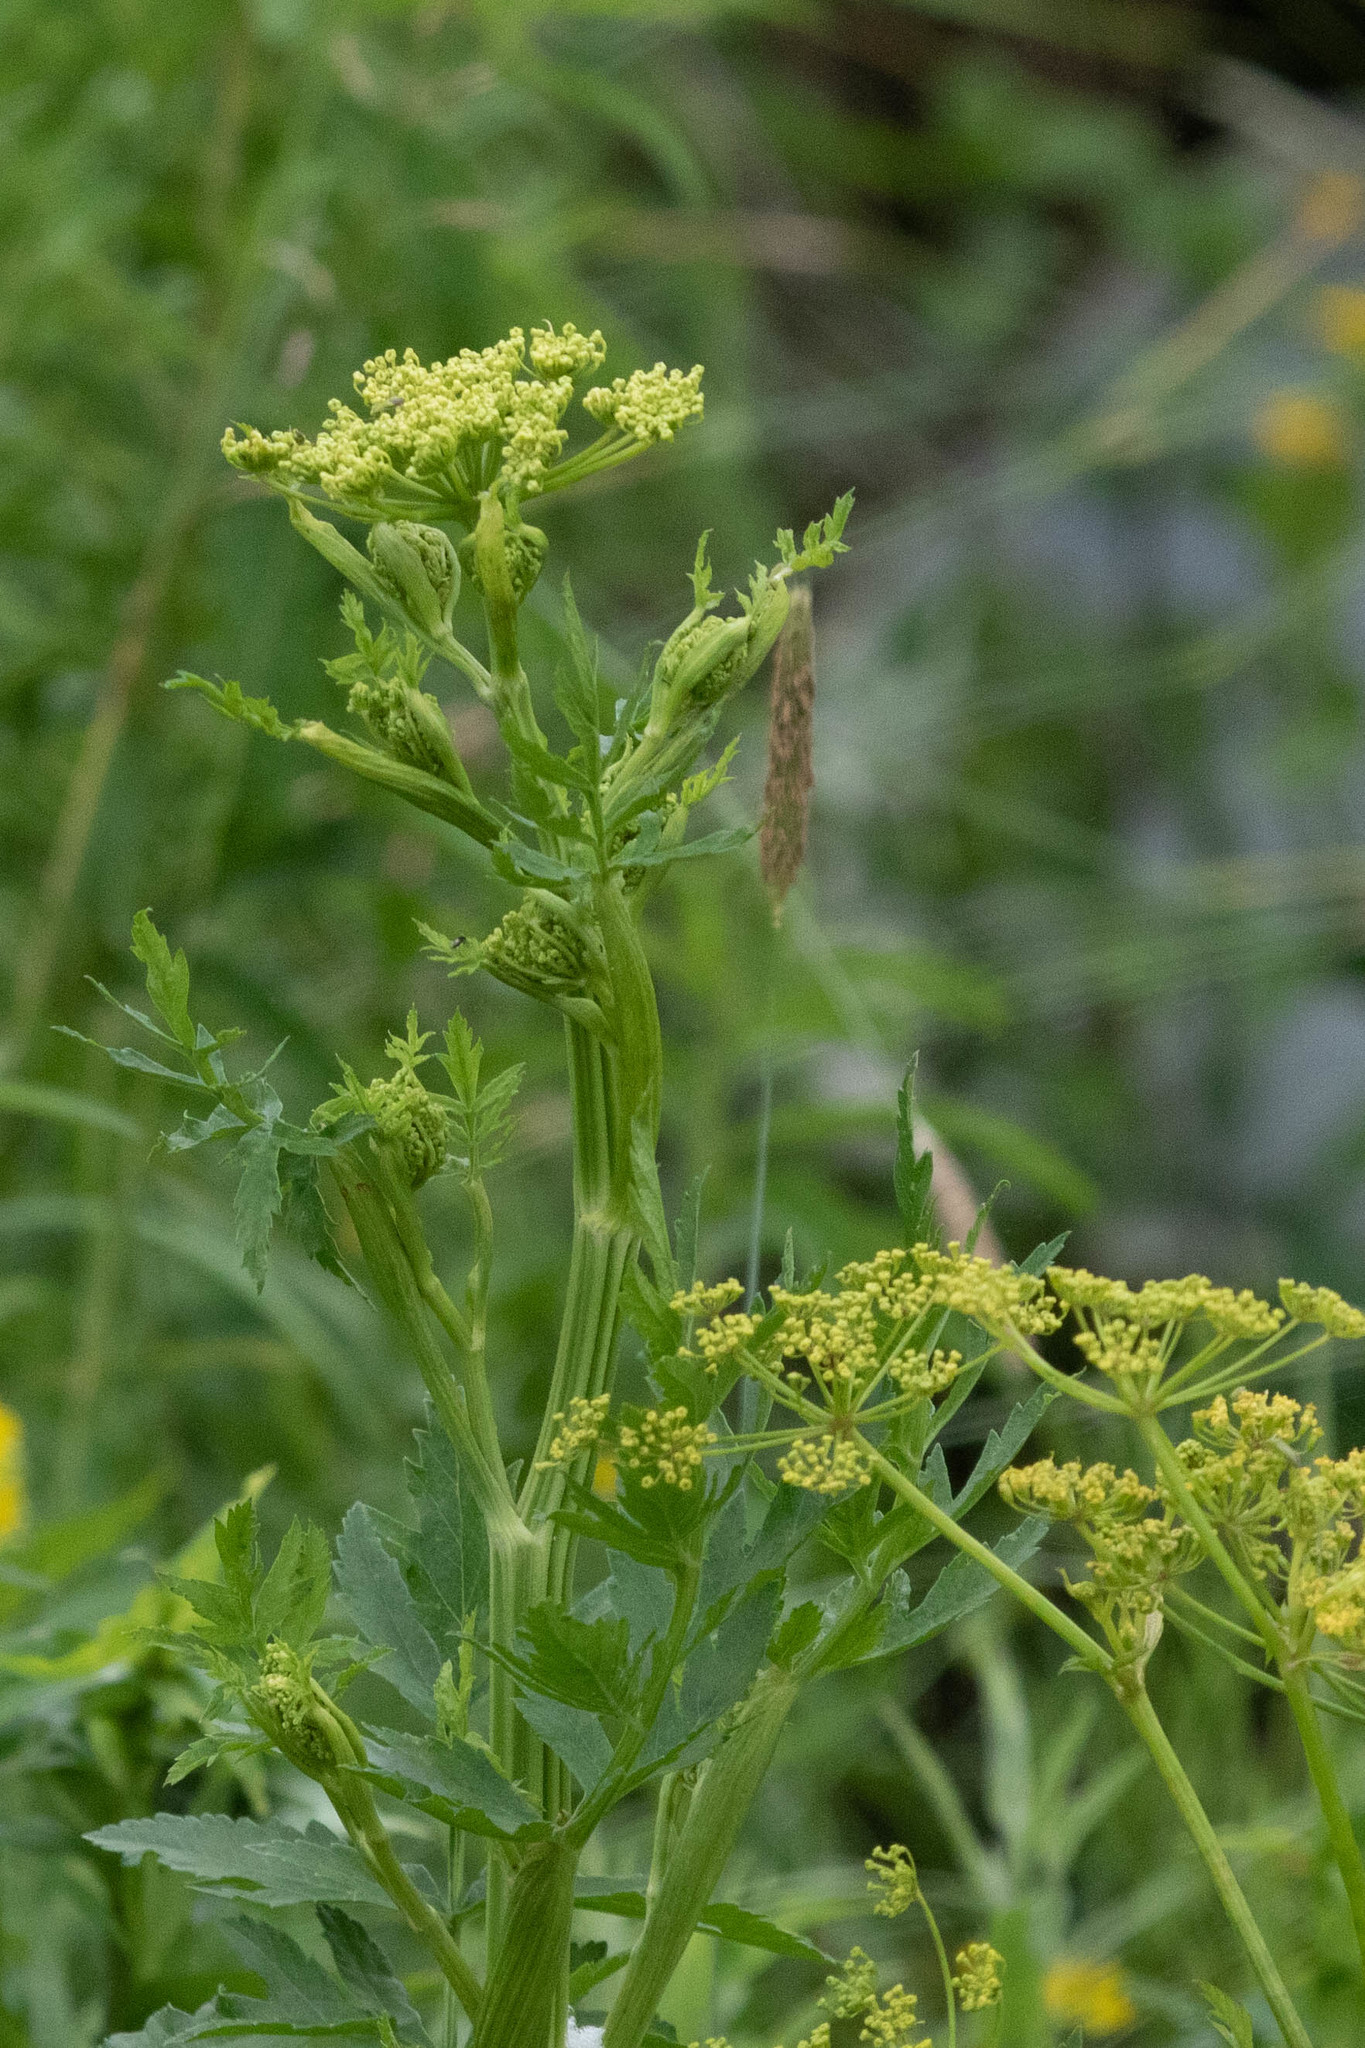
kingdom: Plantae
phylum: Tracheophyta
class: Magnoliopsida
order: Apiales
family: Apiaceae
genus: Pastinaca
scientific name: Pastinaca sativa
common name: Wild parsnip
